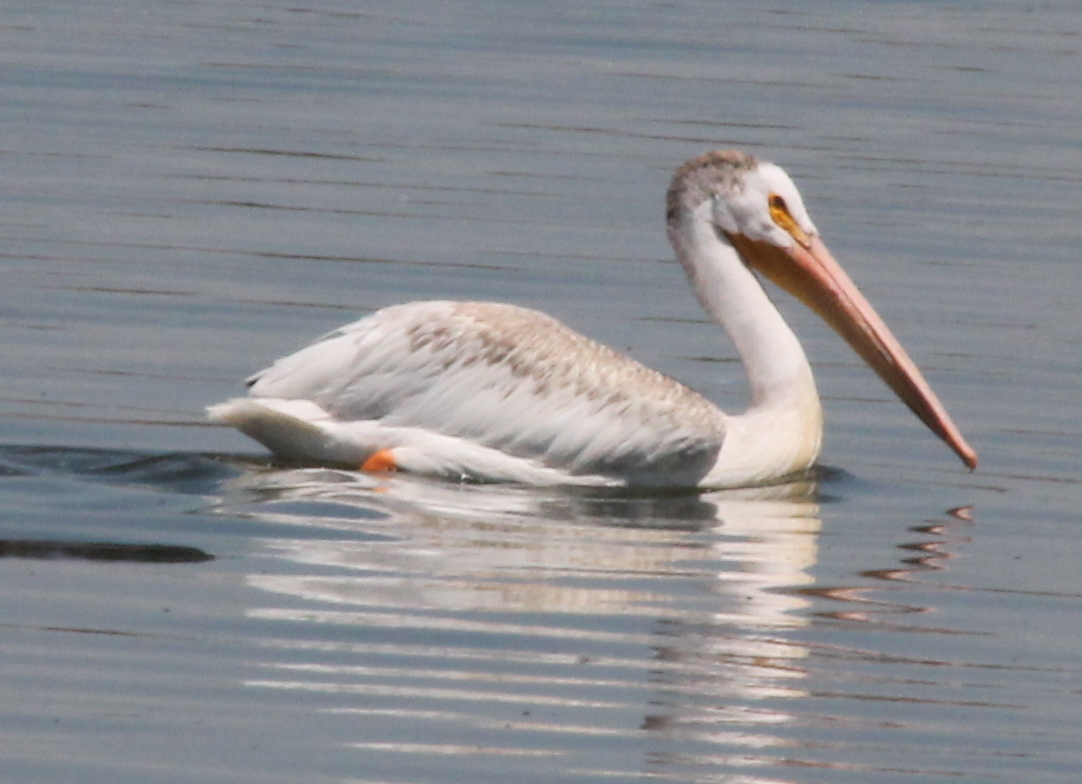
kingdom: Animalia
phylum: Chordata
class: Aves
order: Pelecaniformes
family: Pelecanidae
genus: Pelecanus
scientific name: Pelecanus erythrorhynchos
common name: American white pelican
